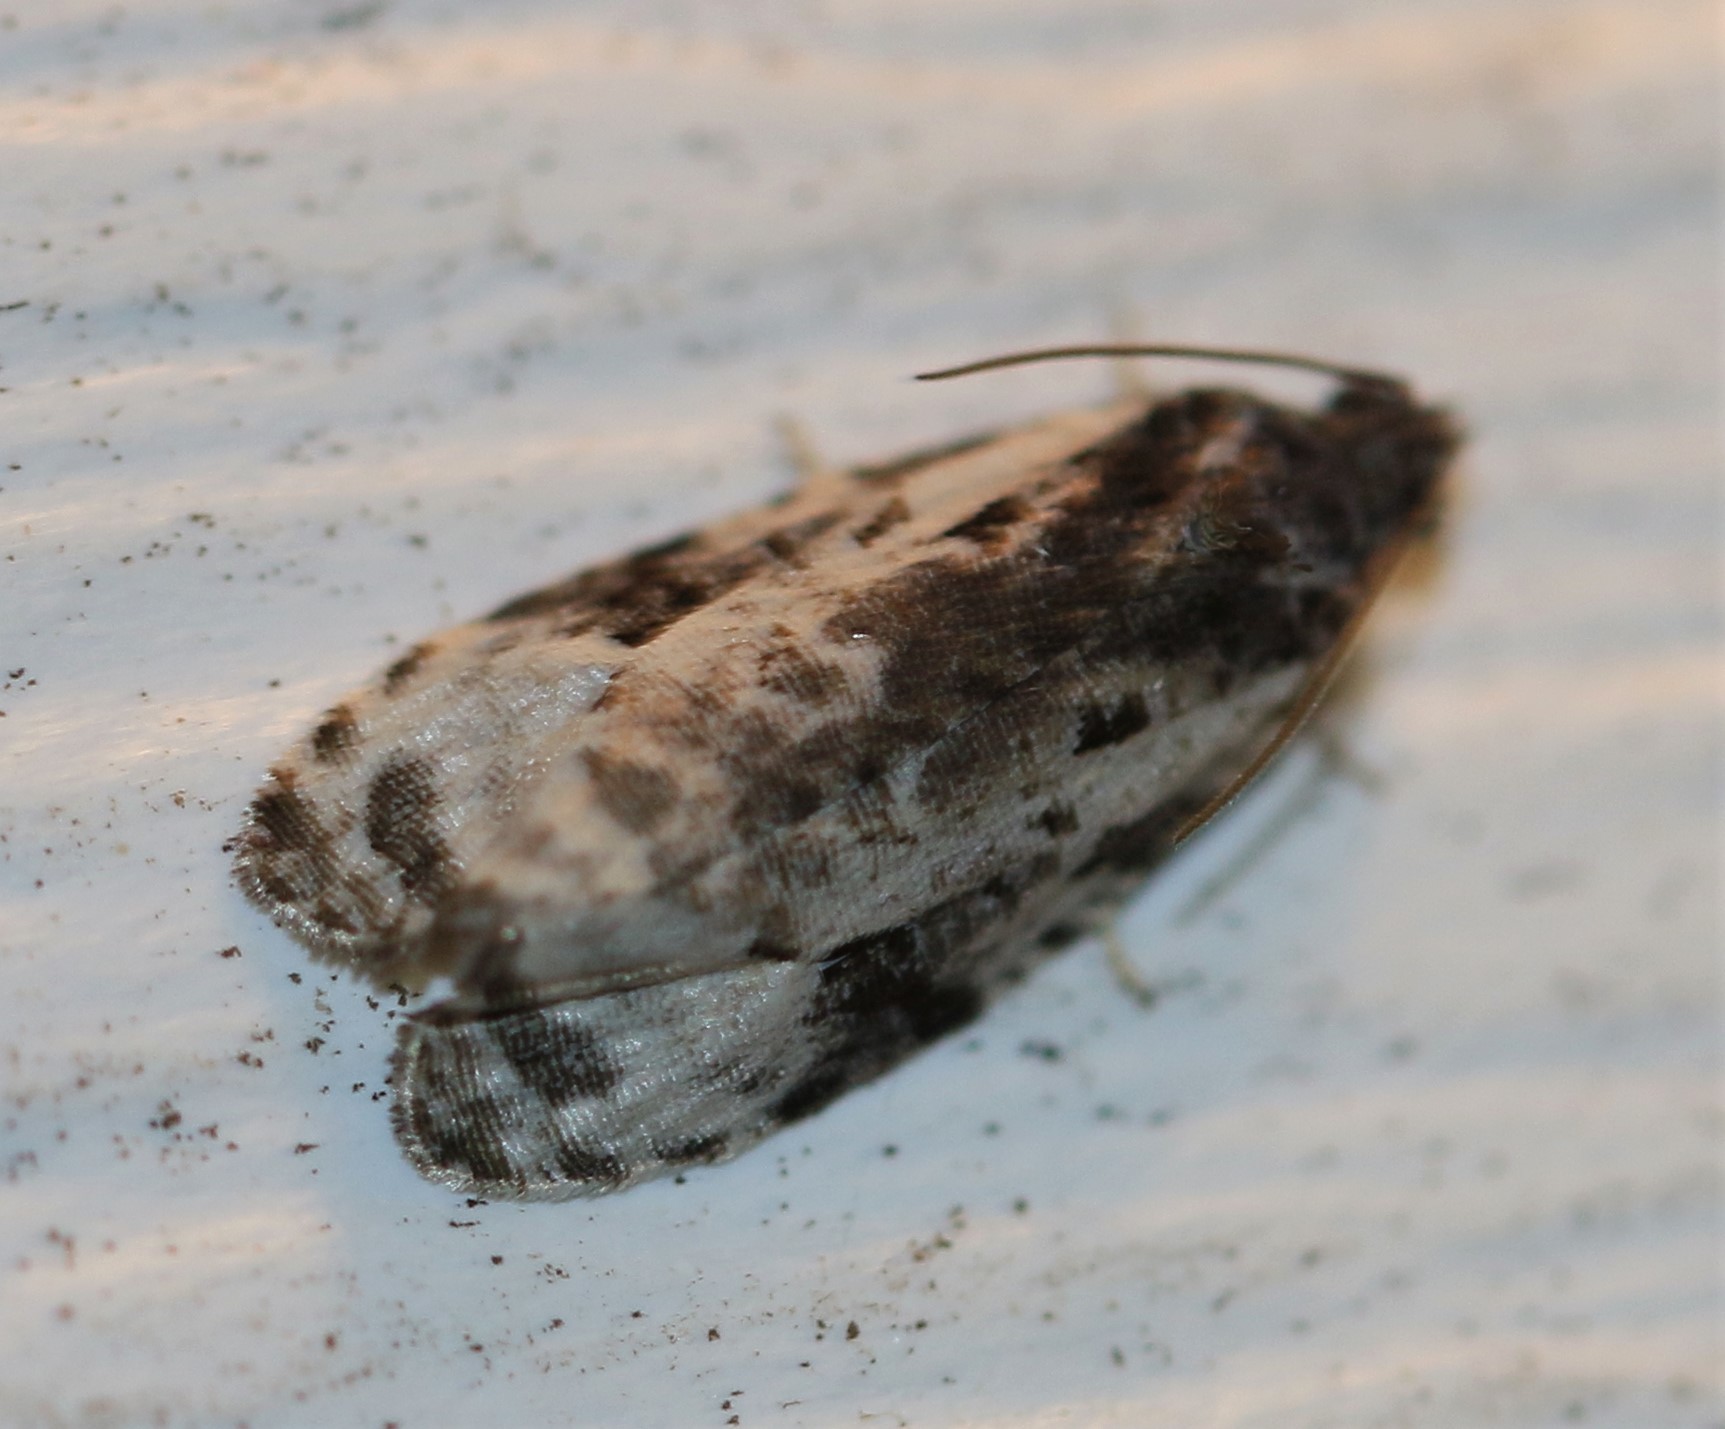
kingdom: Animalia
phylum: Arthropoda
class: Insecta
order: Lepidoptera
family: Tortricidae
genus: Apotomis
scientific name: Apotomis albeolana
